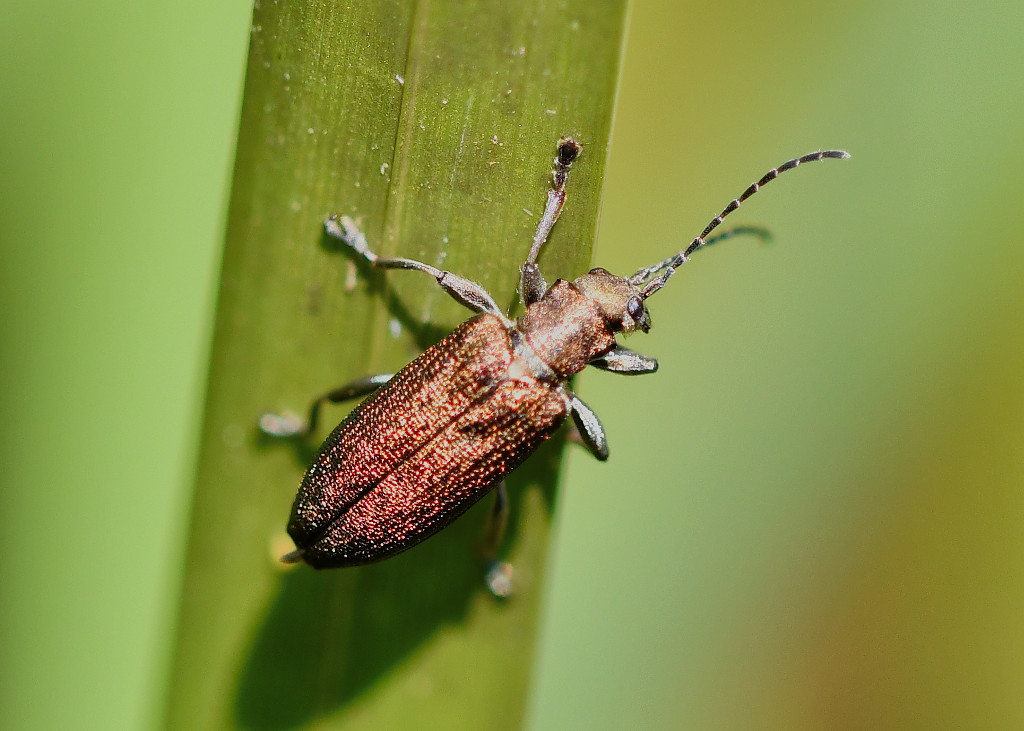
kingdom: Animalia
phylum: Arthropoda
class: Insecta
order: Coleoptera
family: Chrysomelidae
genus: Donacia
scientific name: Donacia vulgaris
